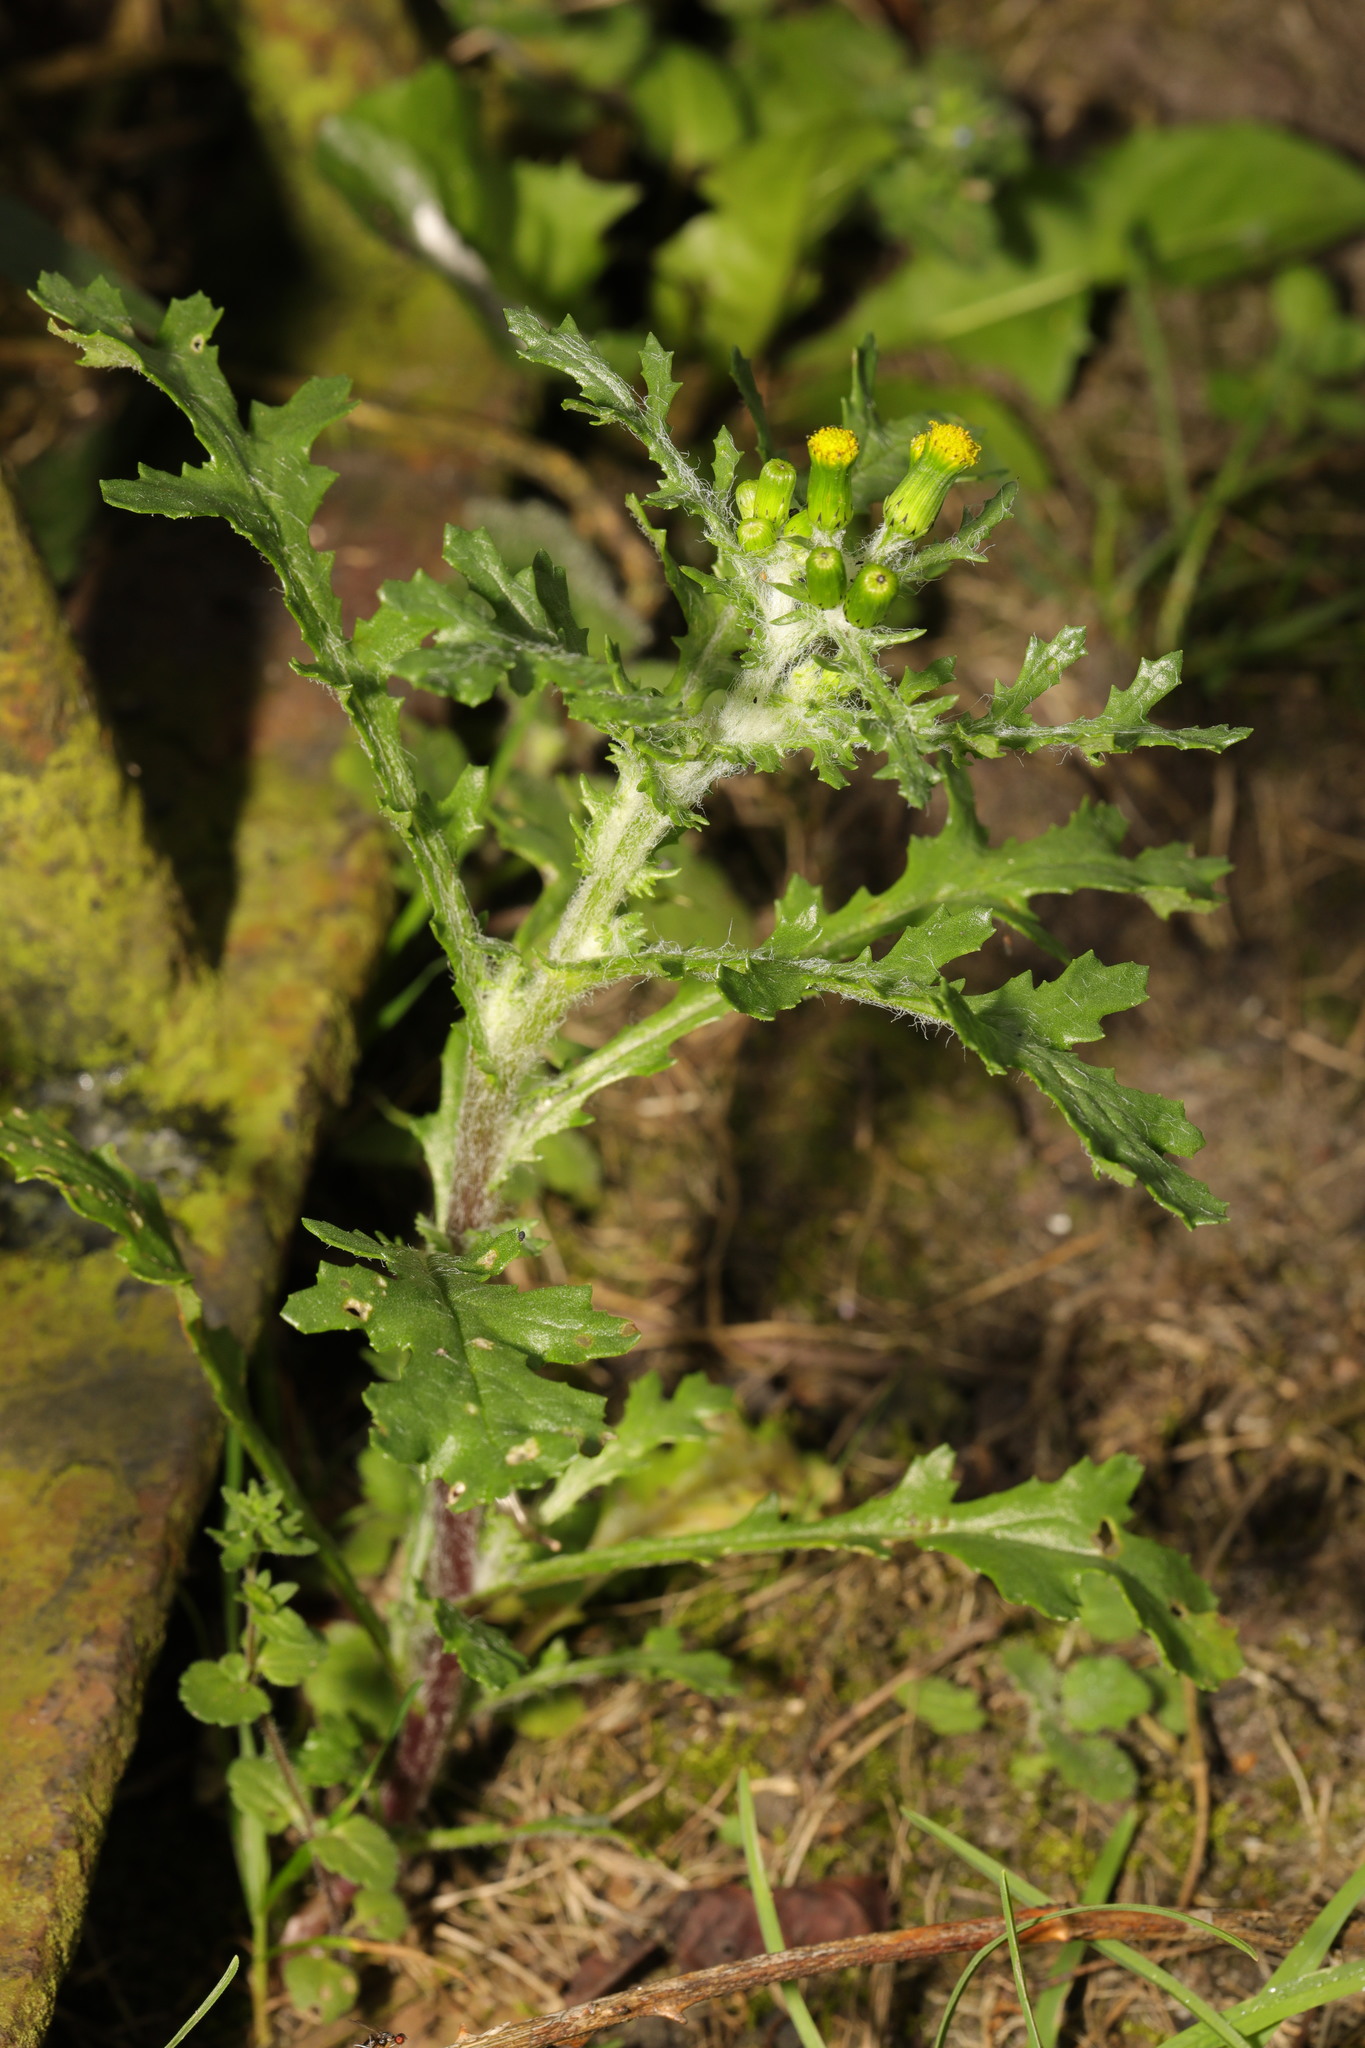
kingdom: Plantae
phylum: Tracheophyta
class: Magnoliopsida
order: Asterales
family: Asteraceae
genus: Senecio
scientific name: Senecio vulgaris
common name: Old-man-in-the-spring
